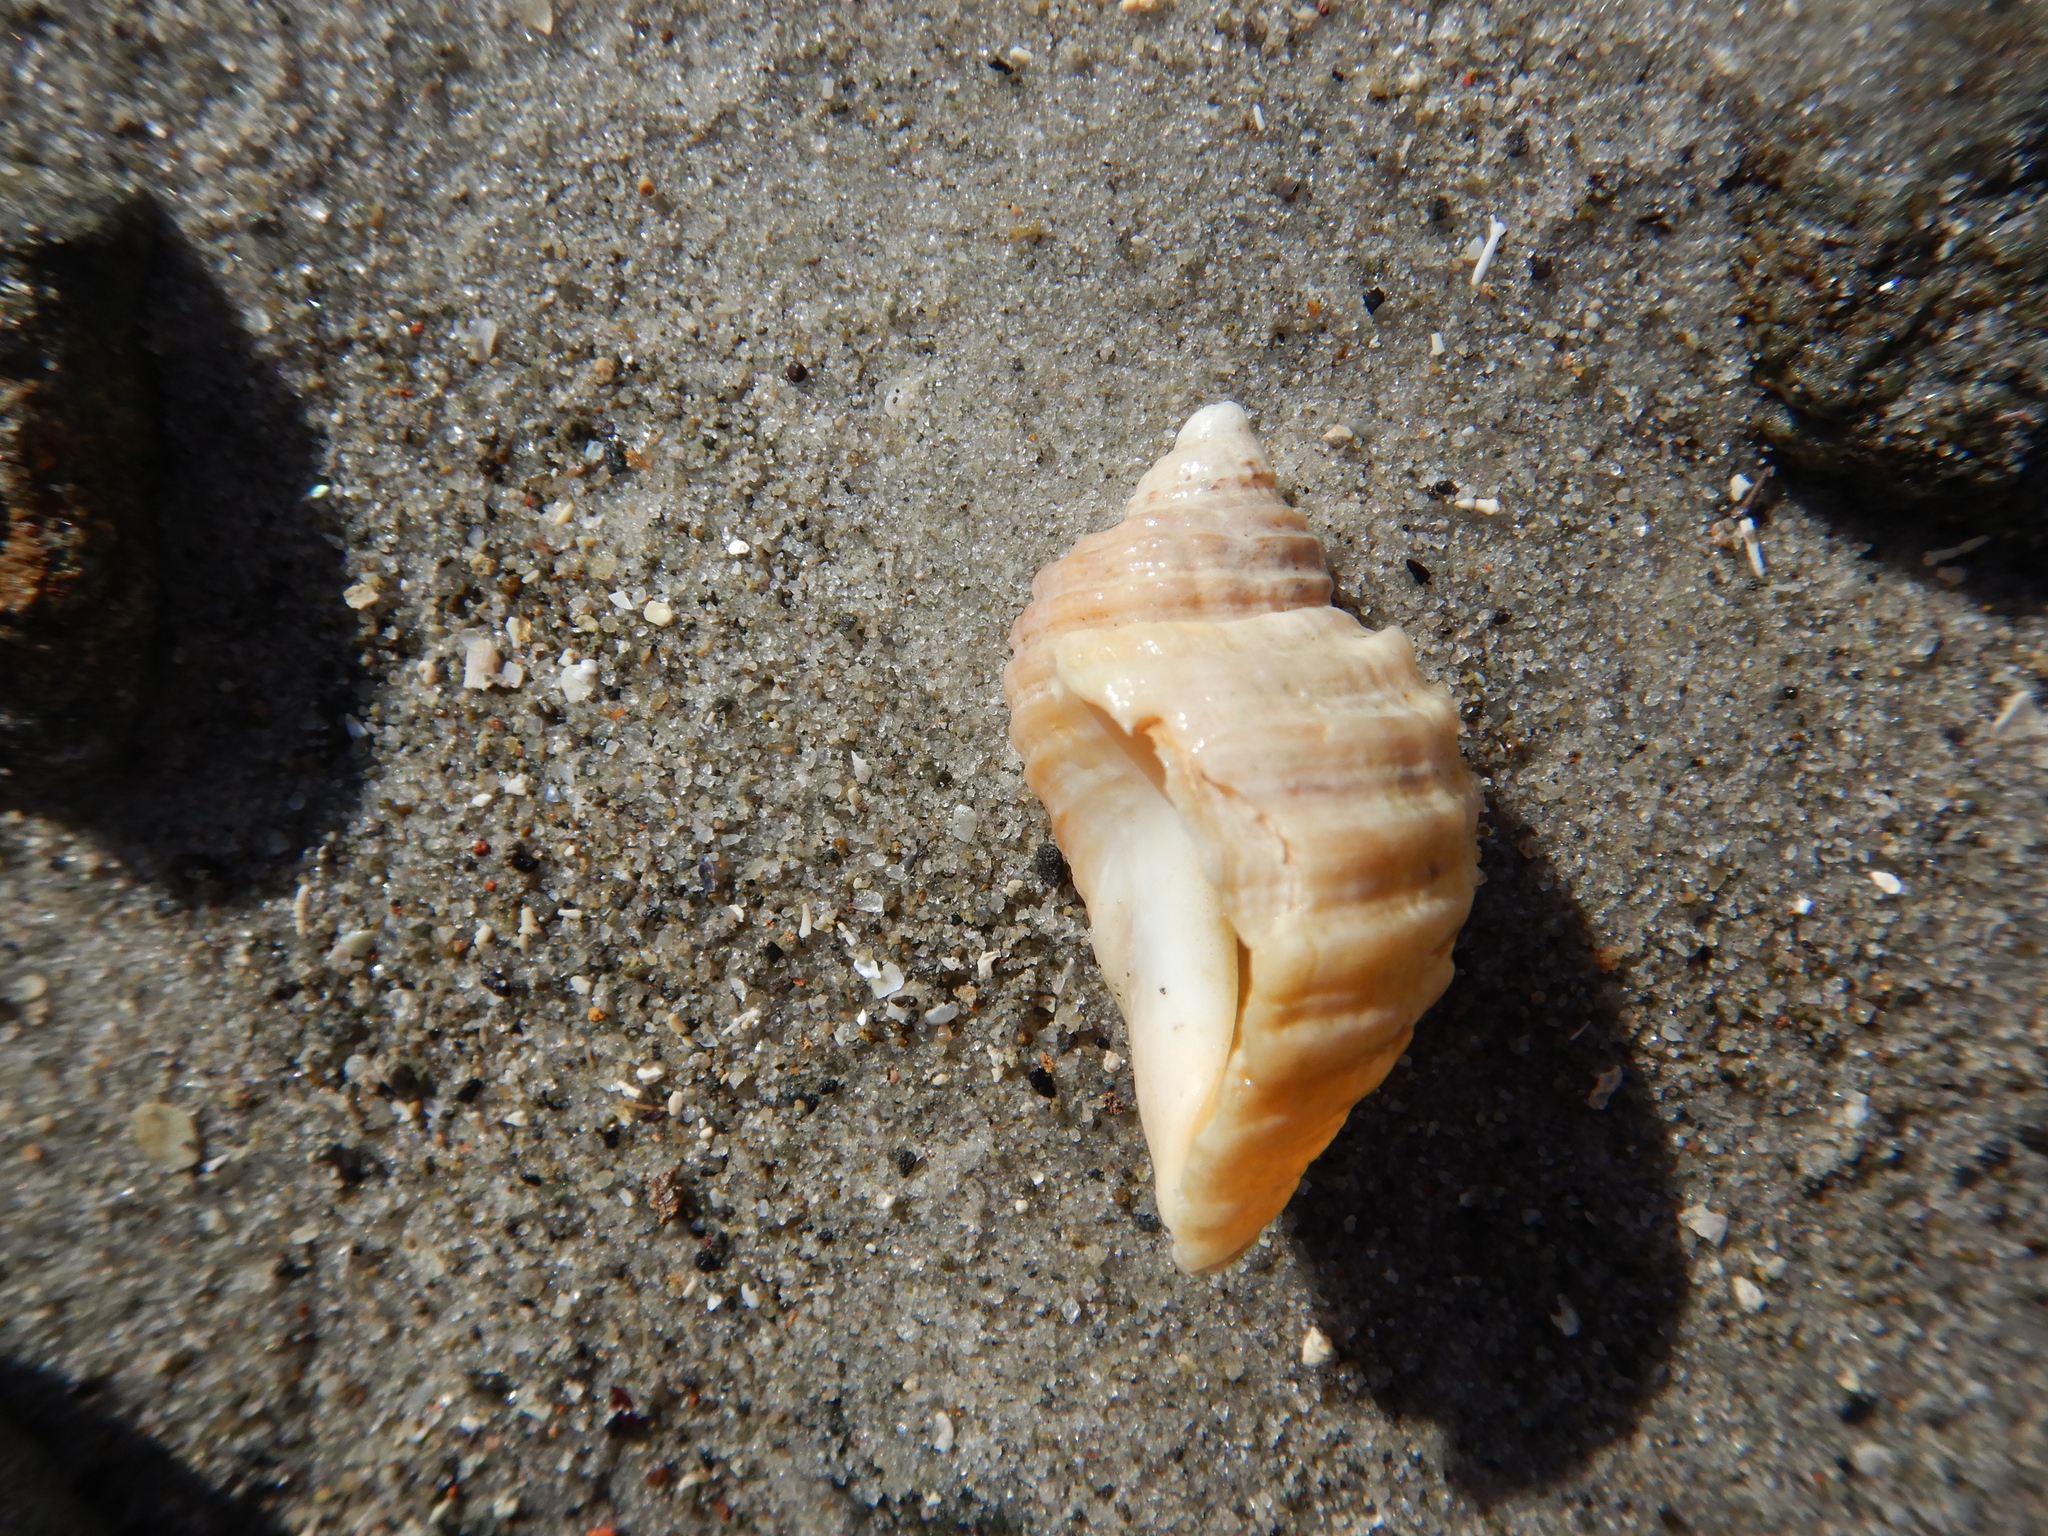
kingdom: Animalia
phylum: Mollusca
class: Gastropoda
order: Neogastropoda
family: Muricidae
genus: Dicathais
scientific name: Dicathais orbita
